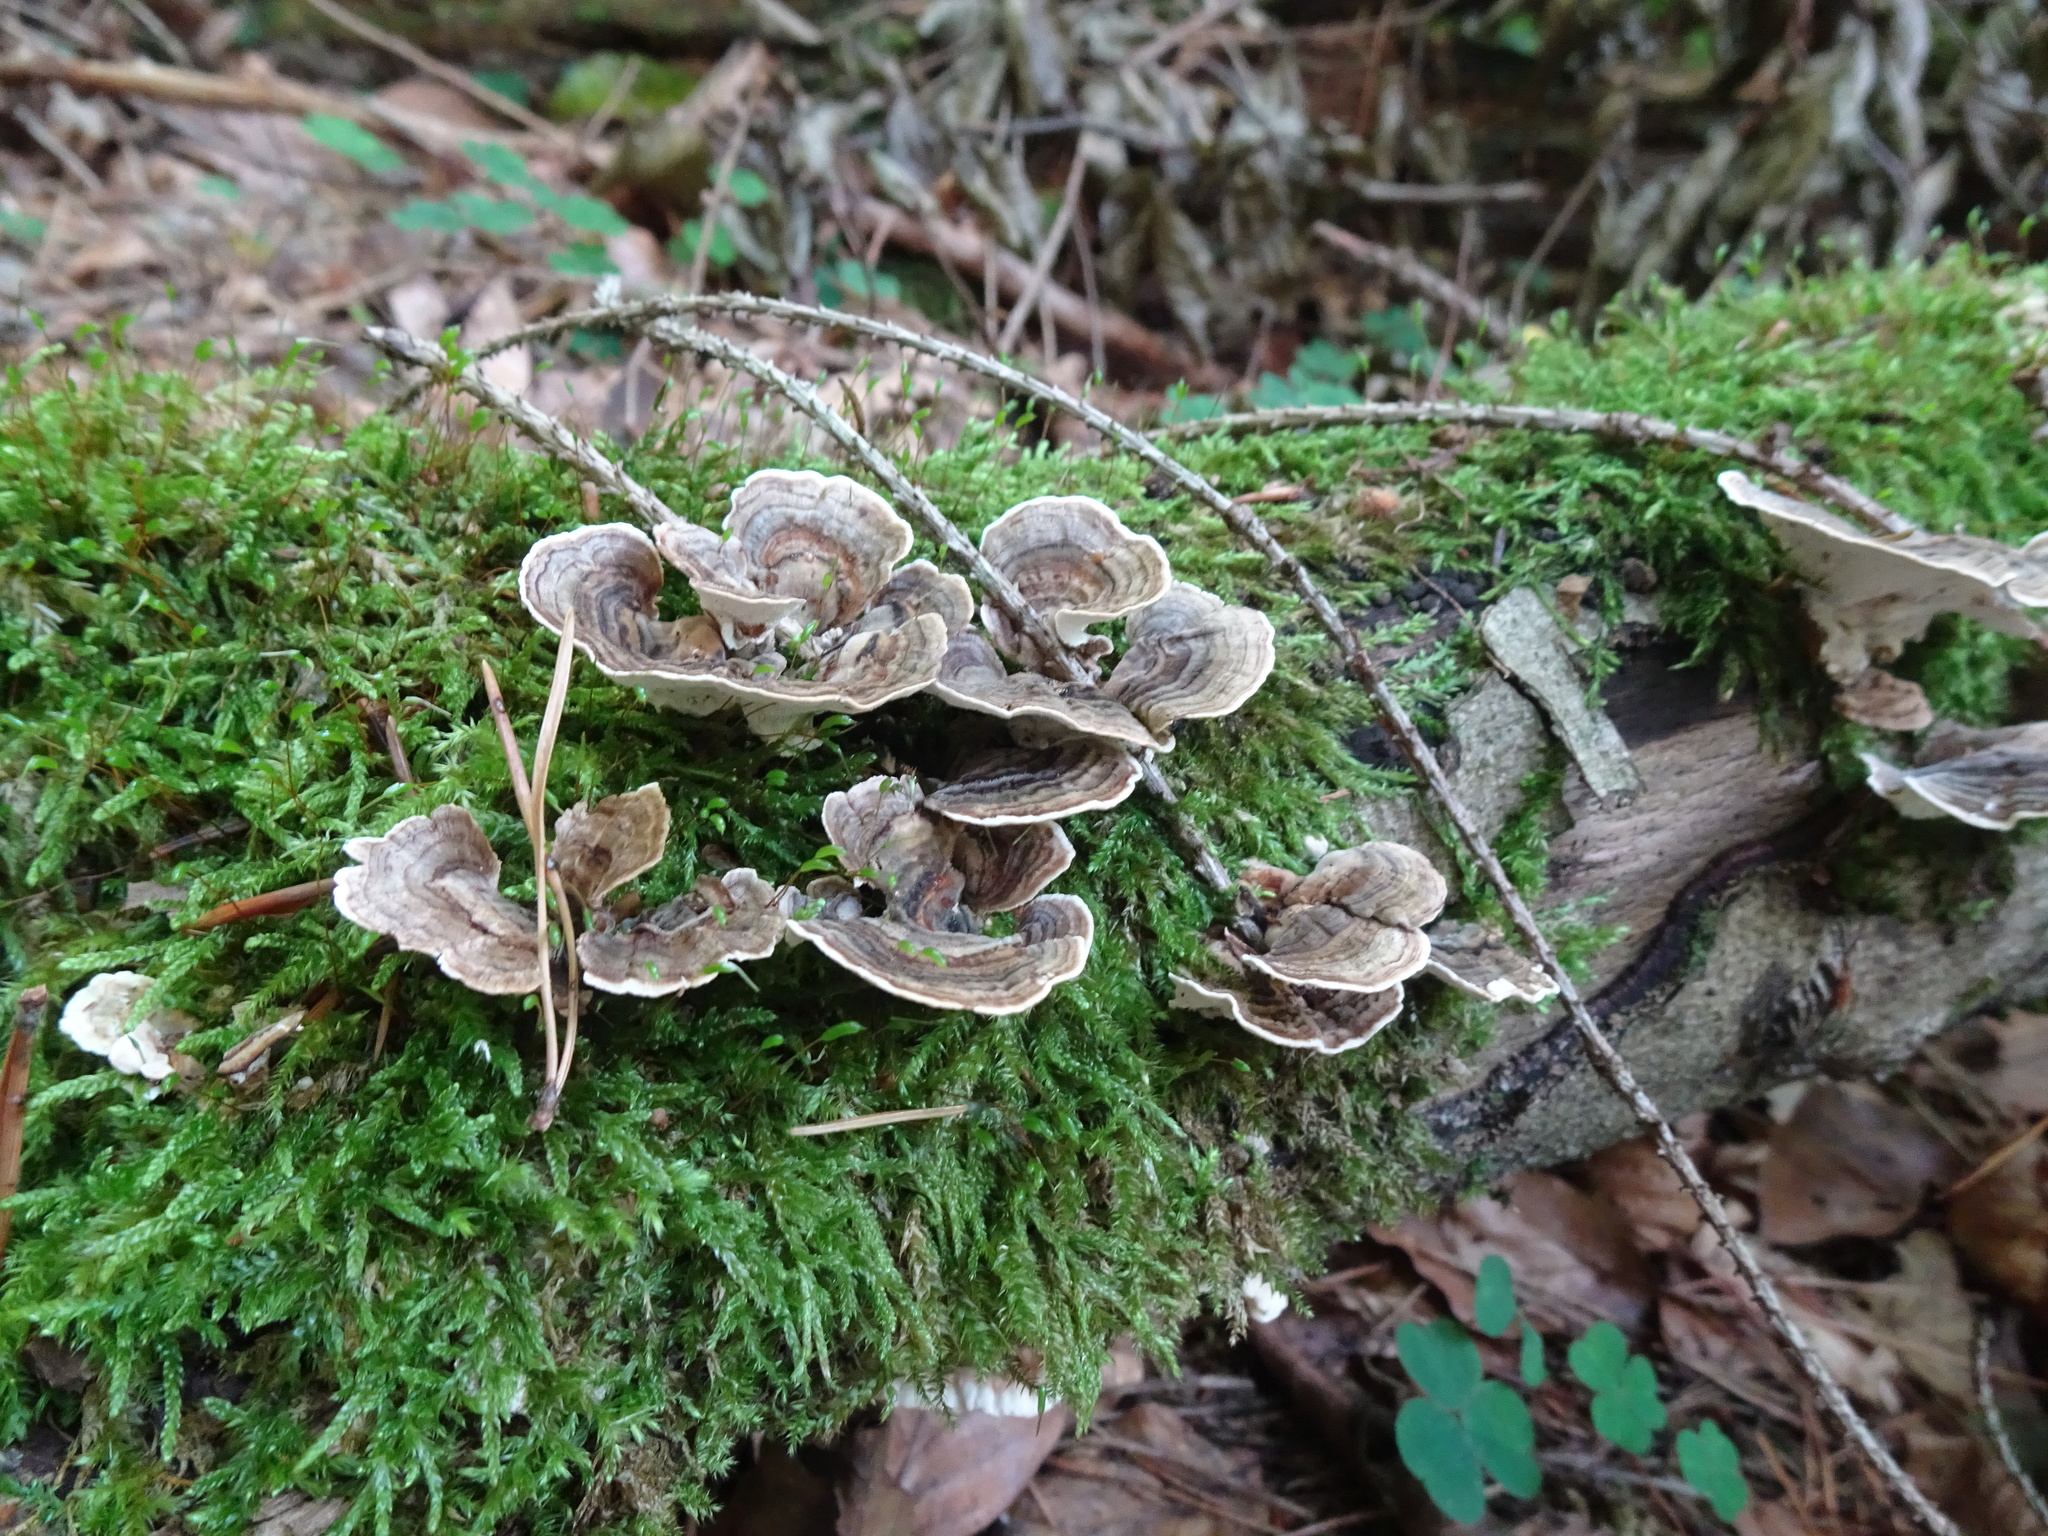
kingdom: Fungi
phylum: Basidiomycota
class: Agaricomycetes
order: Polyporales
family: Polyporaceae
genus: Trametes
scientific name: Trametes versicolor
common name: Turkeytail
